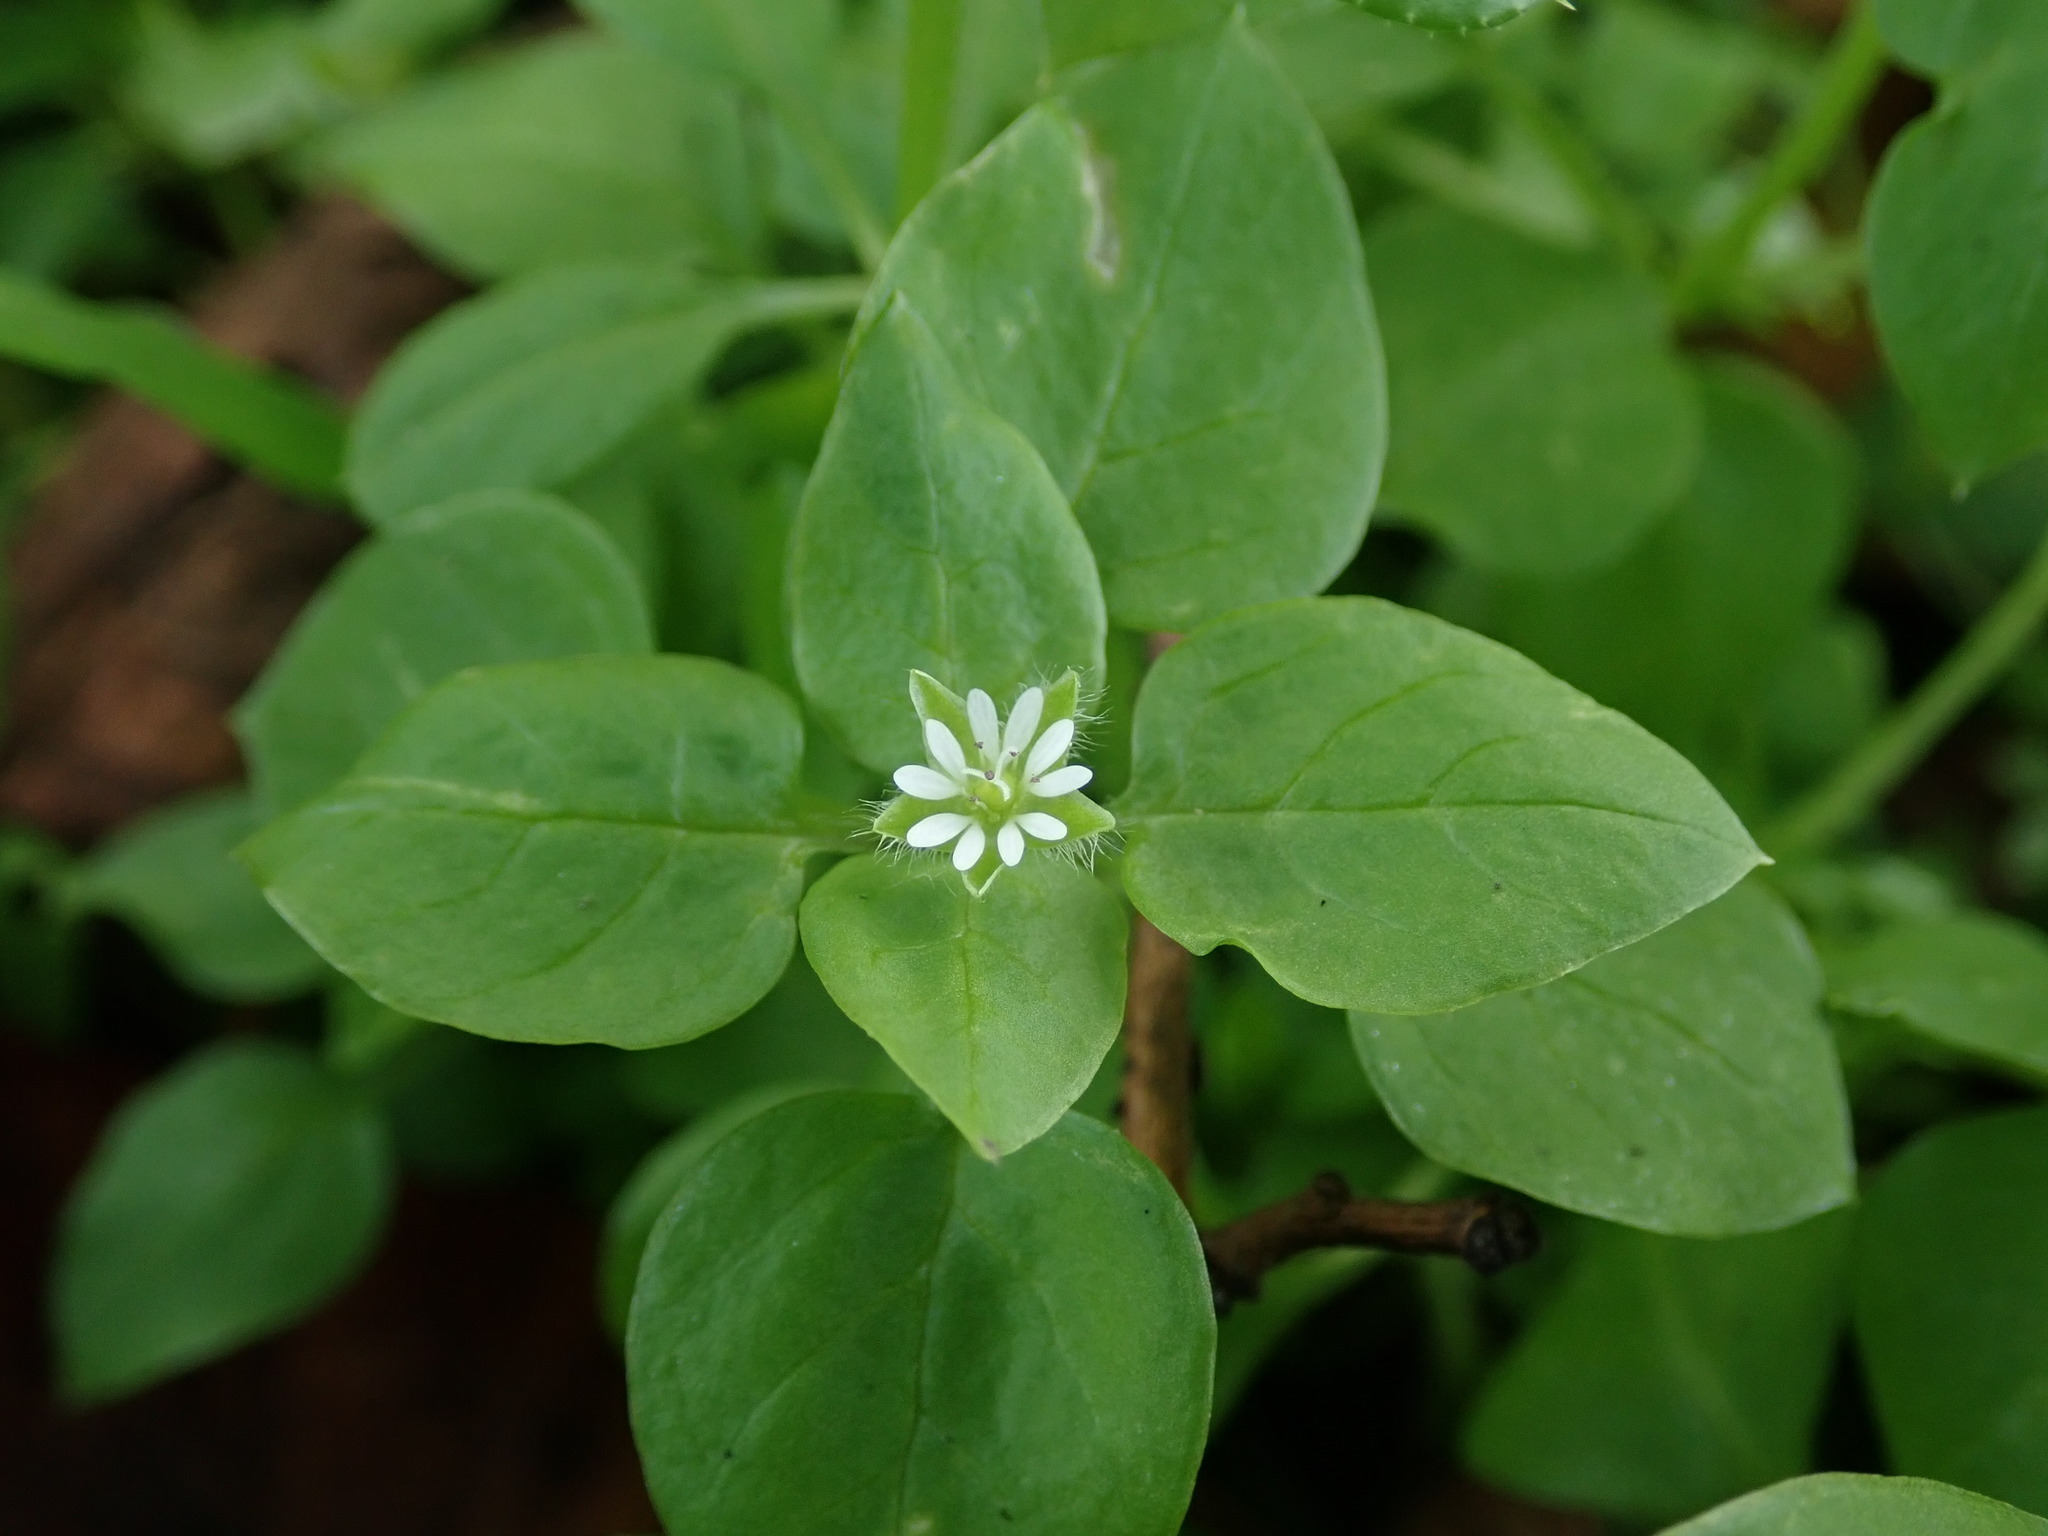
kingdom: Plantae
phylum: Tracheophyta
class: Magnoliopsida
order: Caryophyllales
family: Caryophyllaceae
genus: Stellaria
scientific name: Stellaria media
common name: Common chickweed
